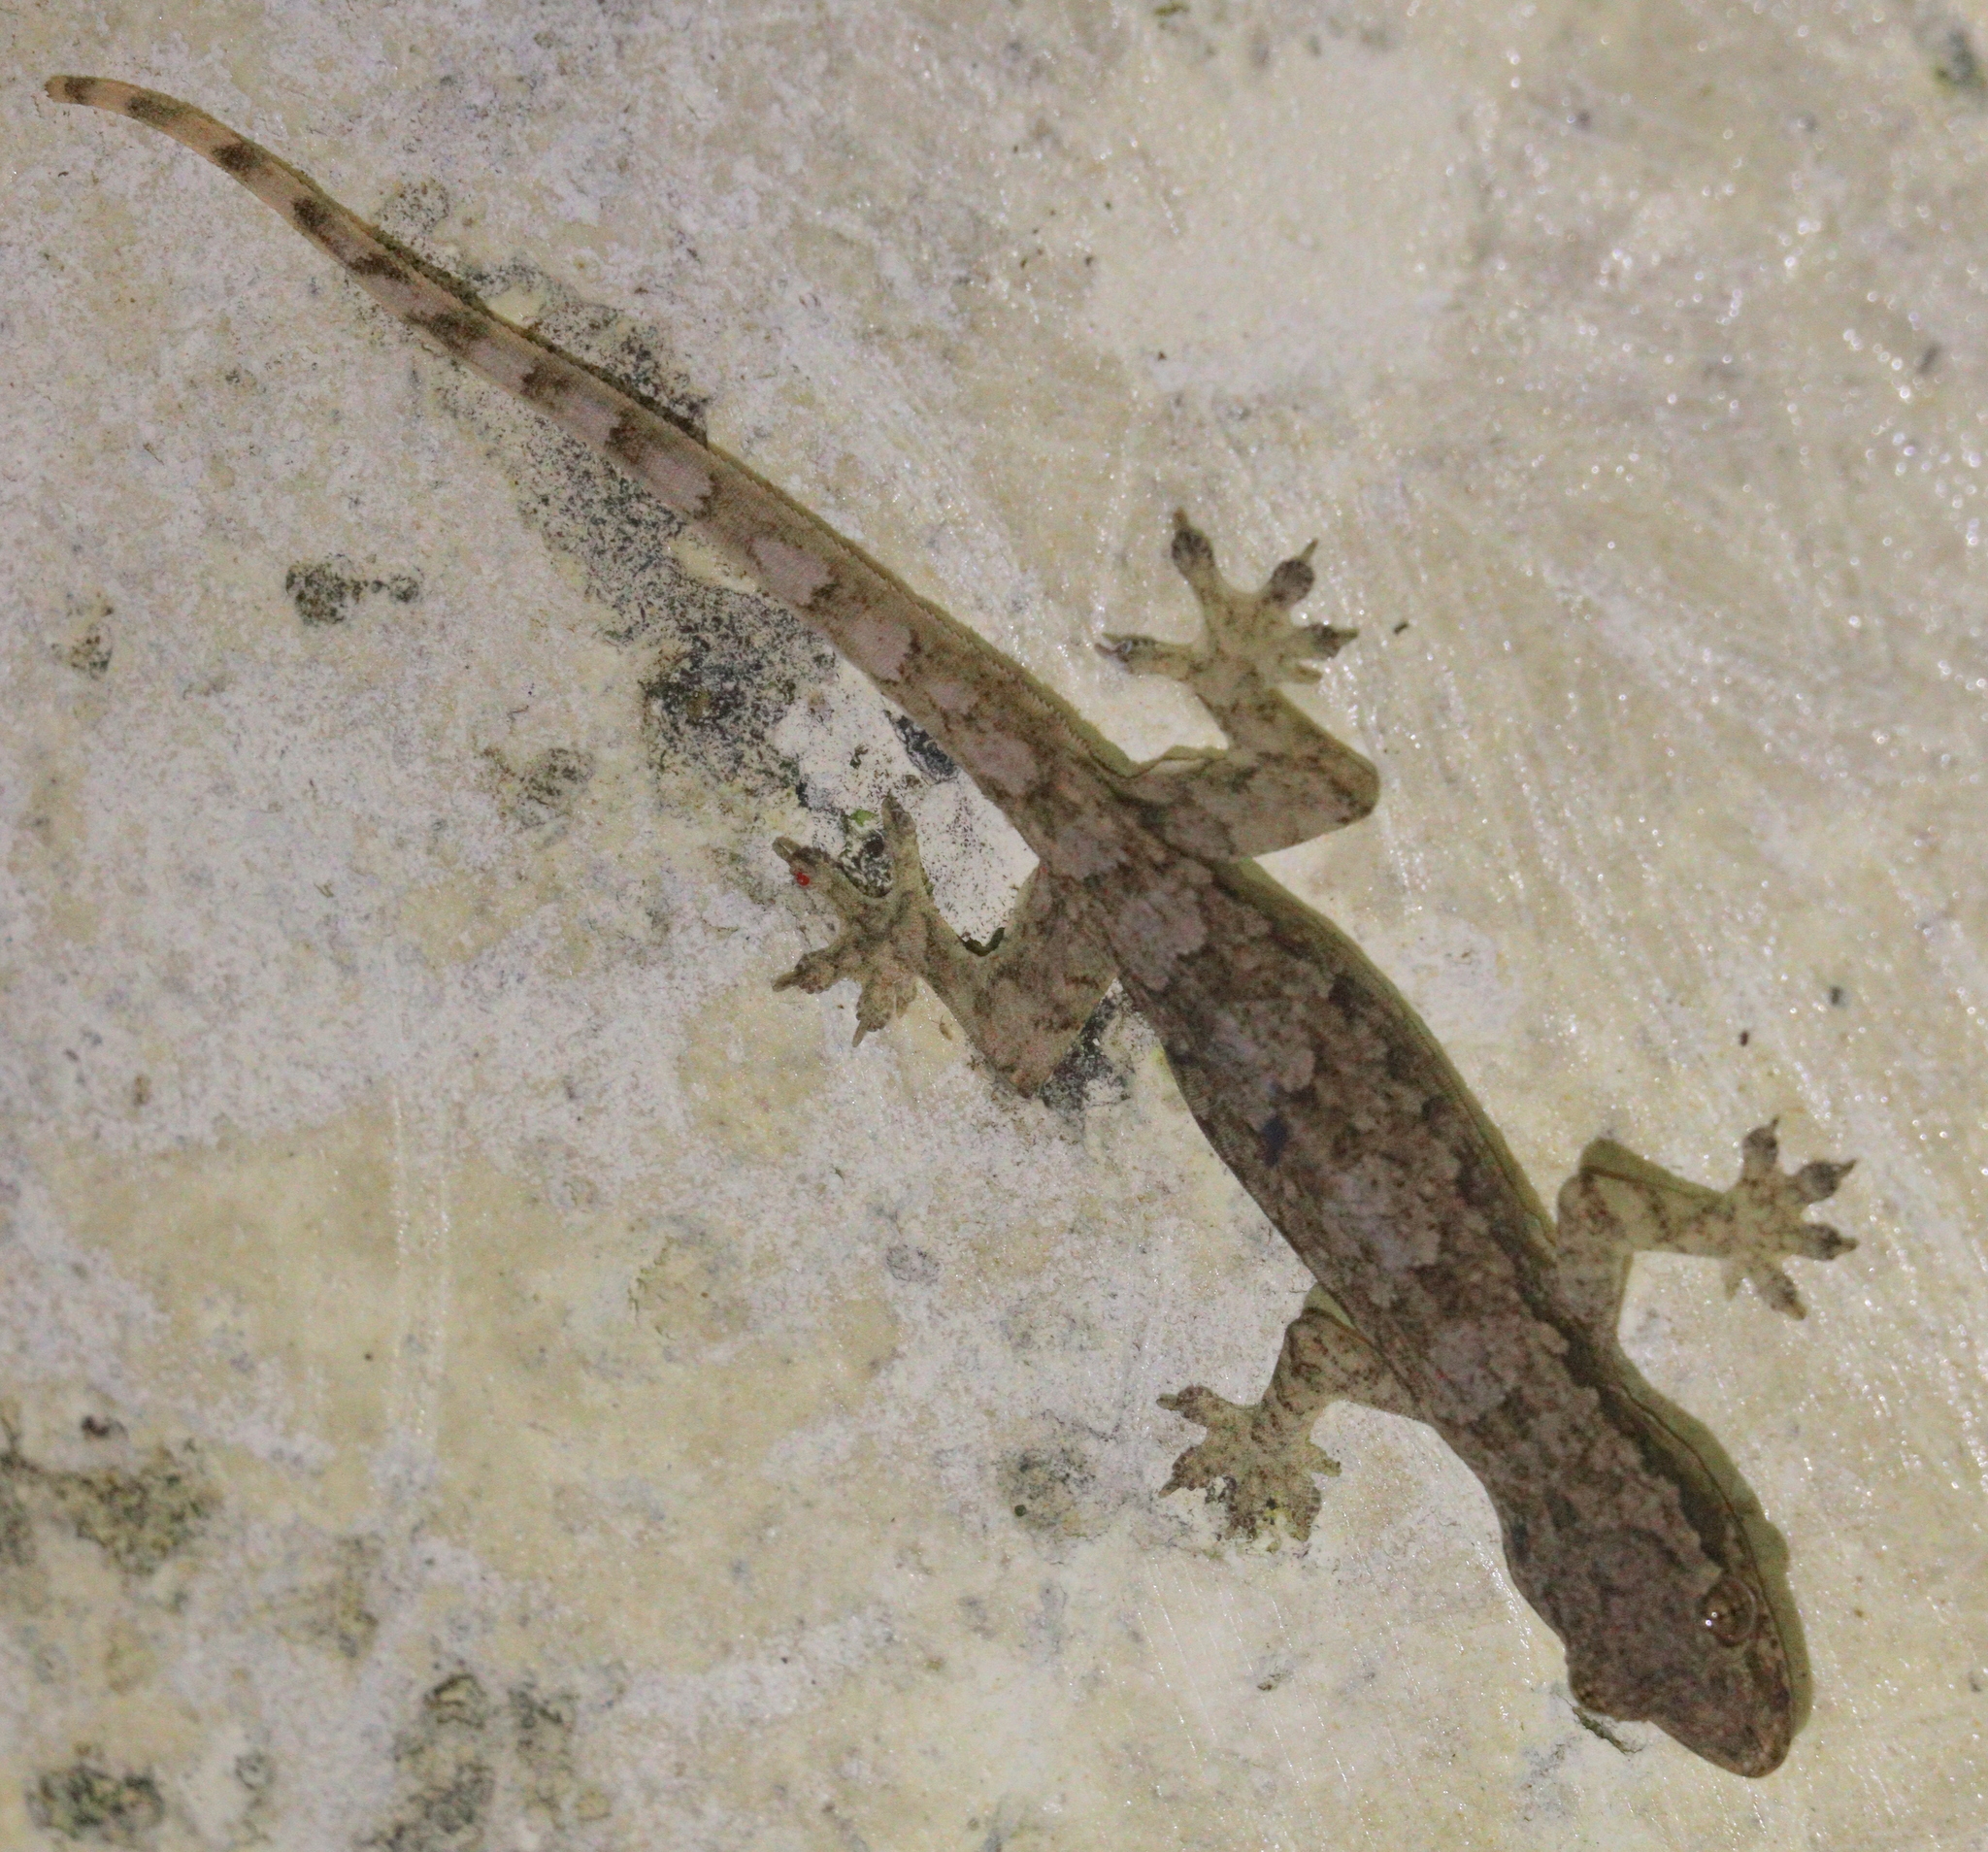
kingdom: Animalia
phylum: Chordata
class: Squamata
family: Gekkonidae
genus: Hemidactylus
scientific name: Hemidactylus platyurus
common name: Flat-tailed house gecko
